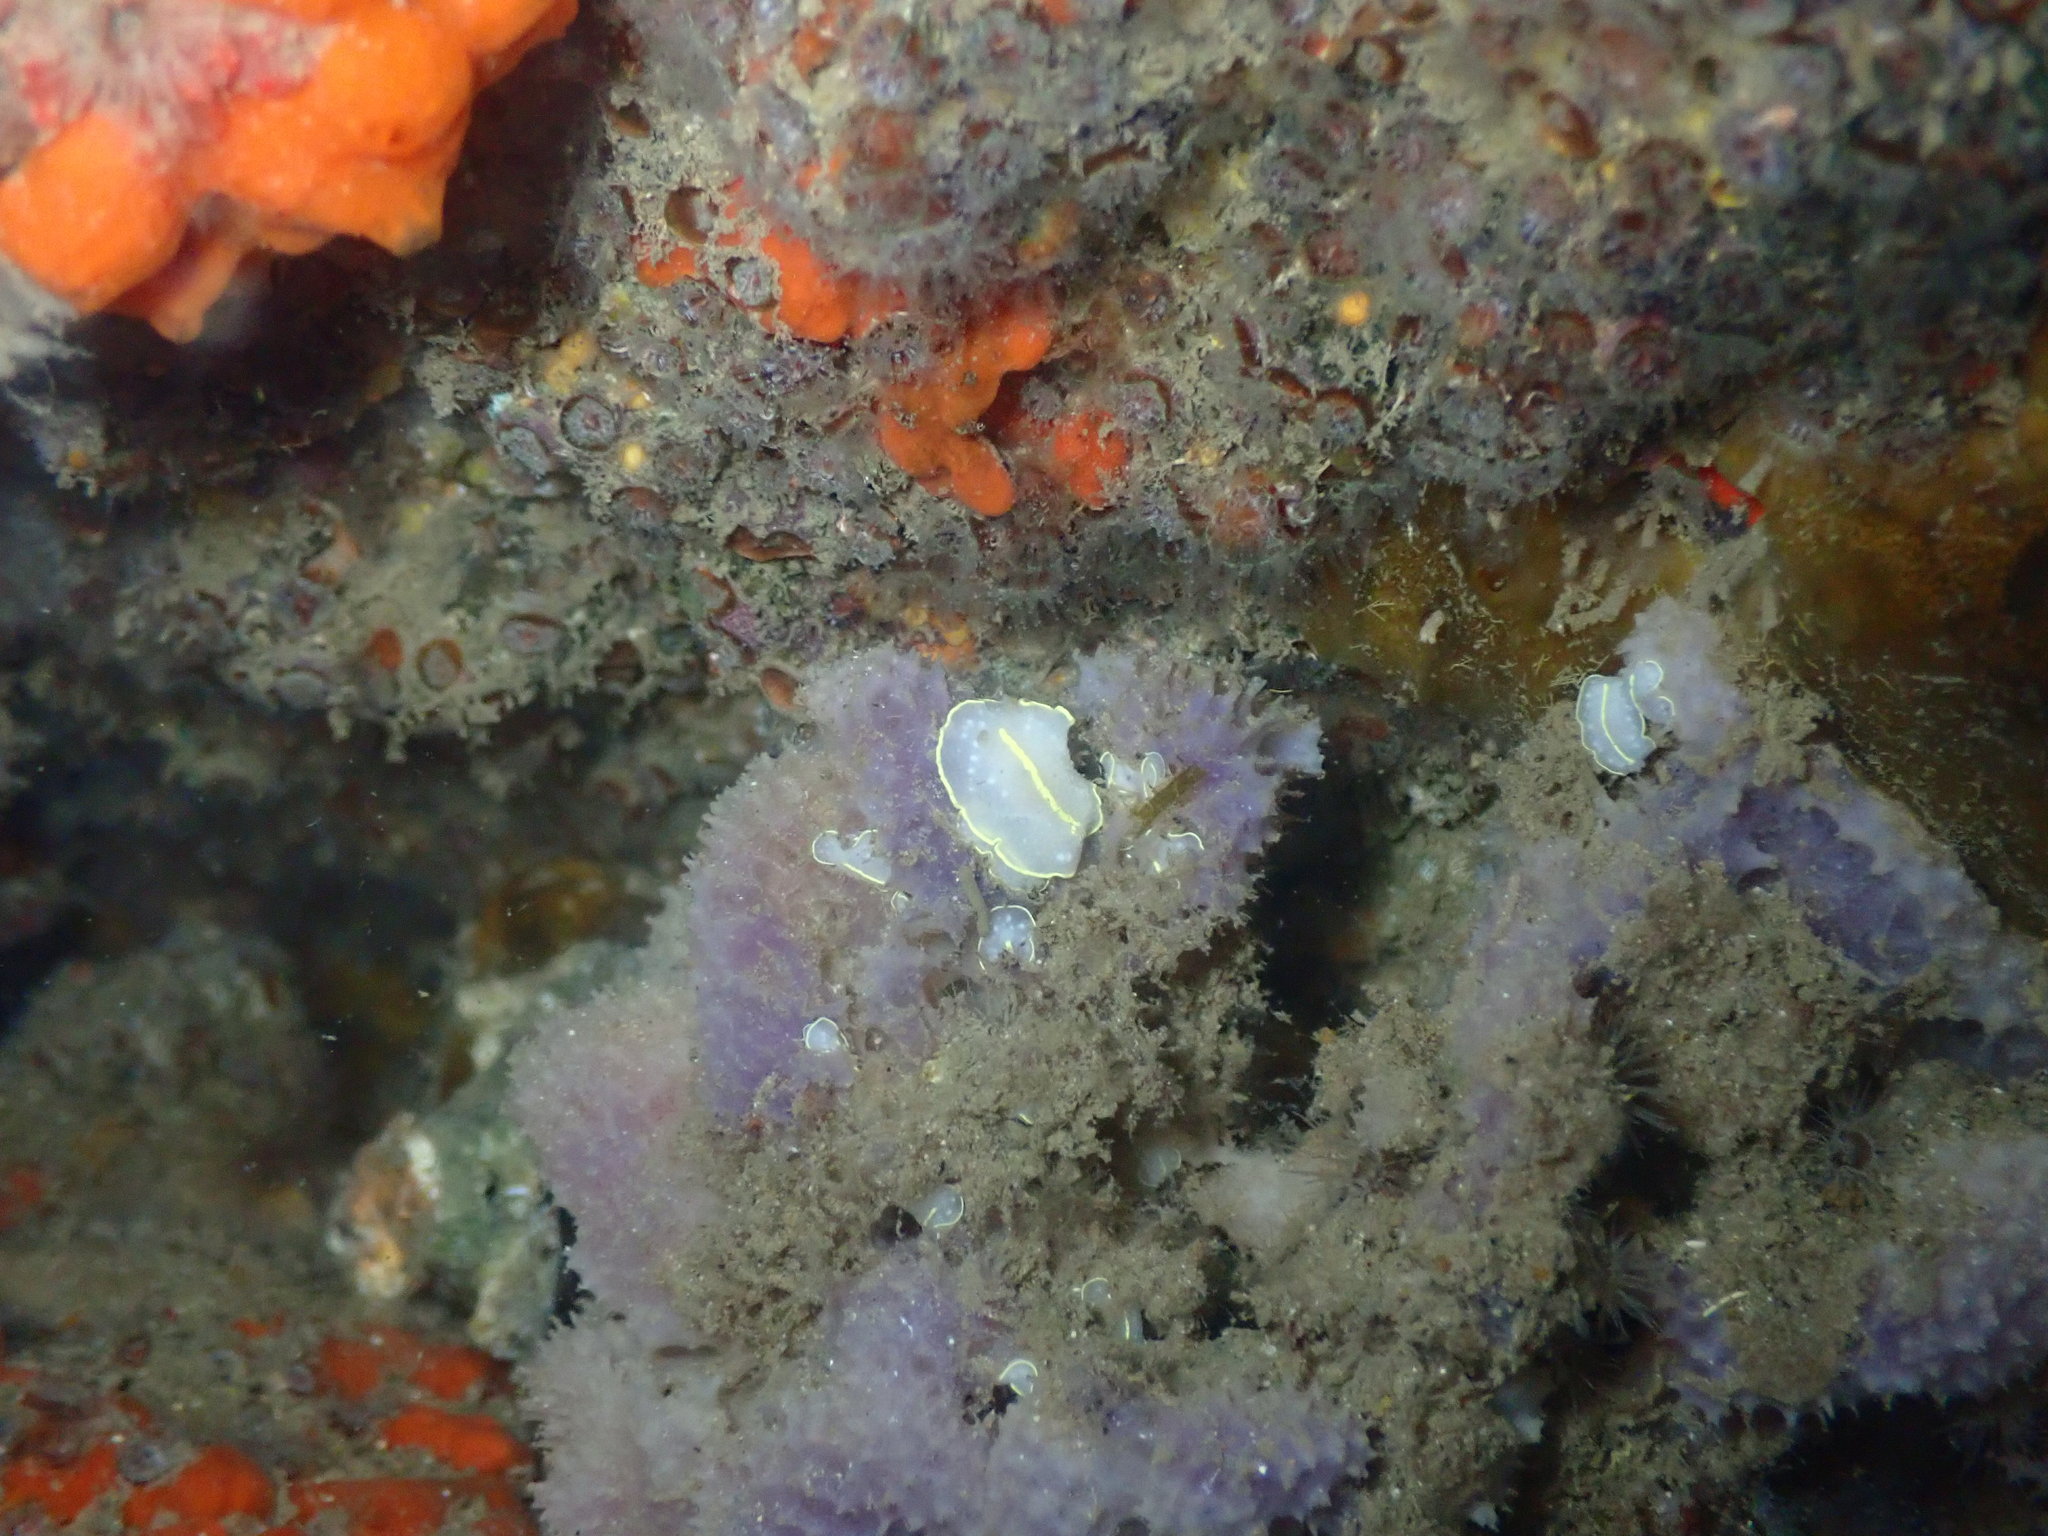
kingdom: Animalia
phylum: Mollusca
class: Gastropoda
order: Nudibranchia
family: Cadlinidae
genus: Cadlina
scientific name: Cadlina willani
